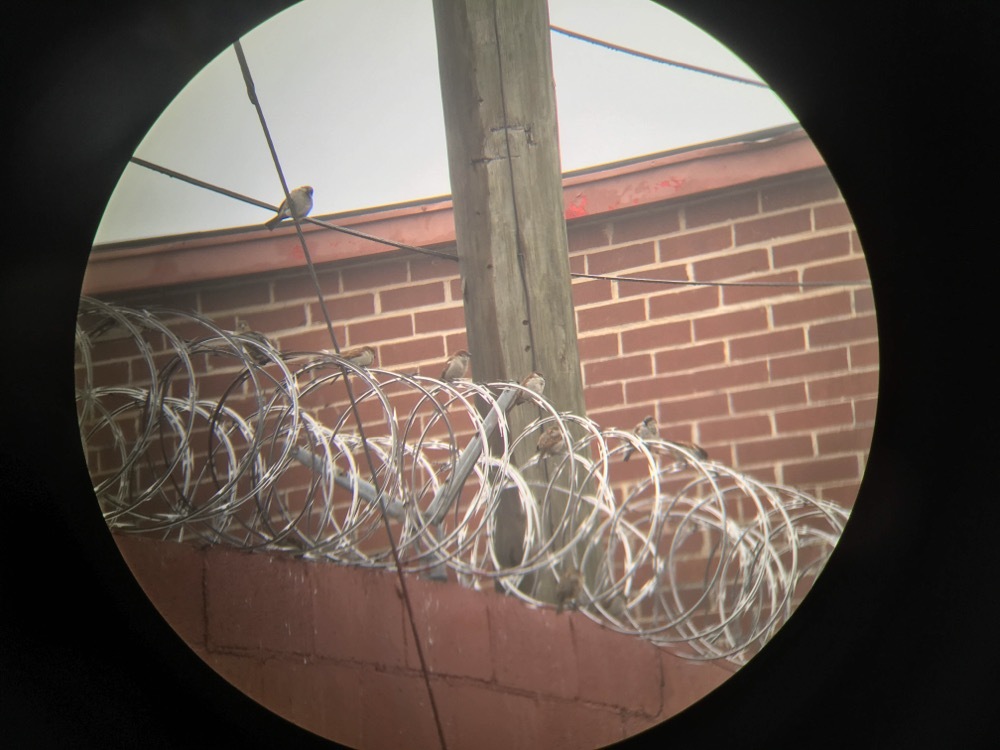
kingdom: Animalia
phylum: Chordata
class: Aves
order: Passeriformes
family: Passeridae
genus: Passer
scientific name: Passer domesticus
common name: House sparrow
